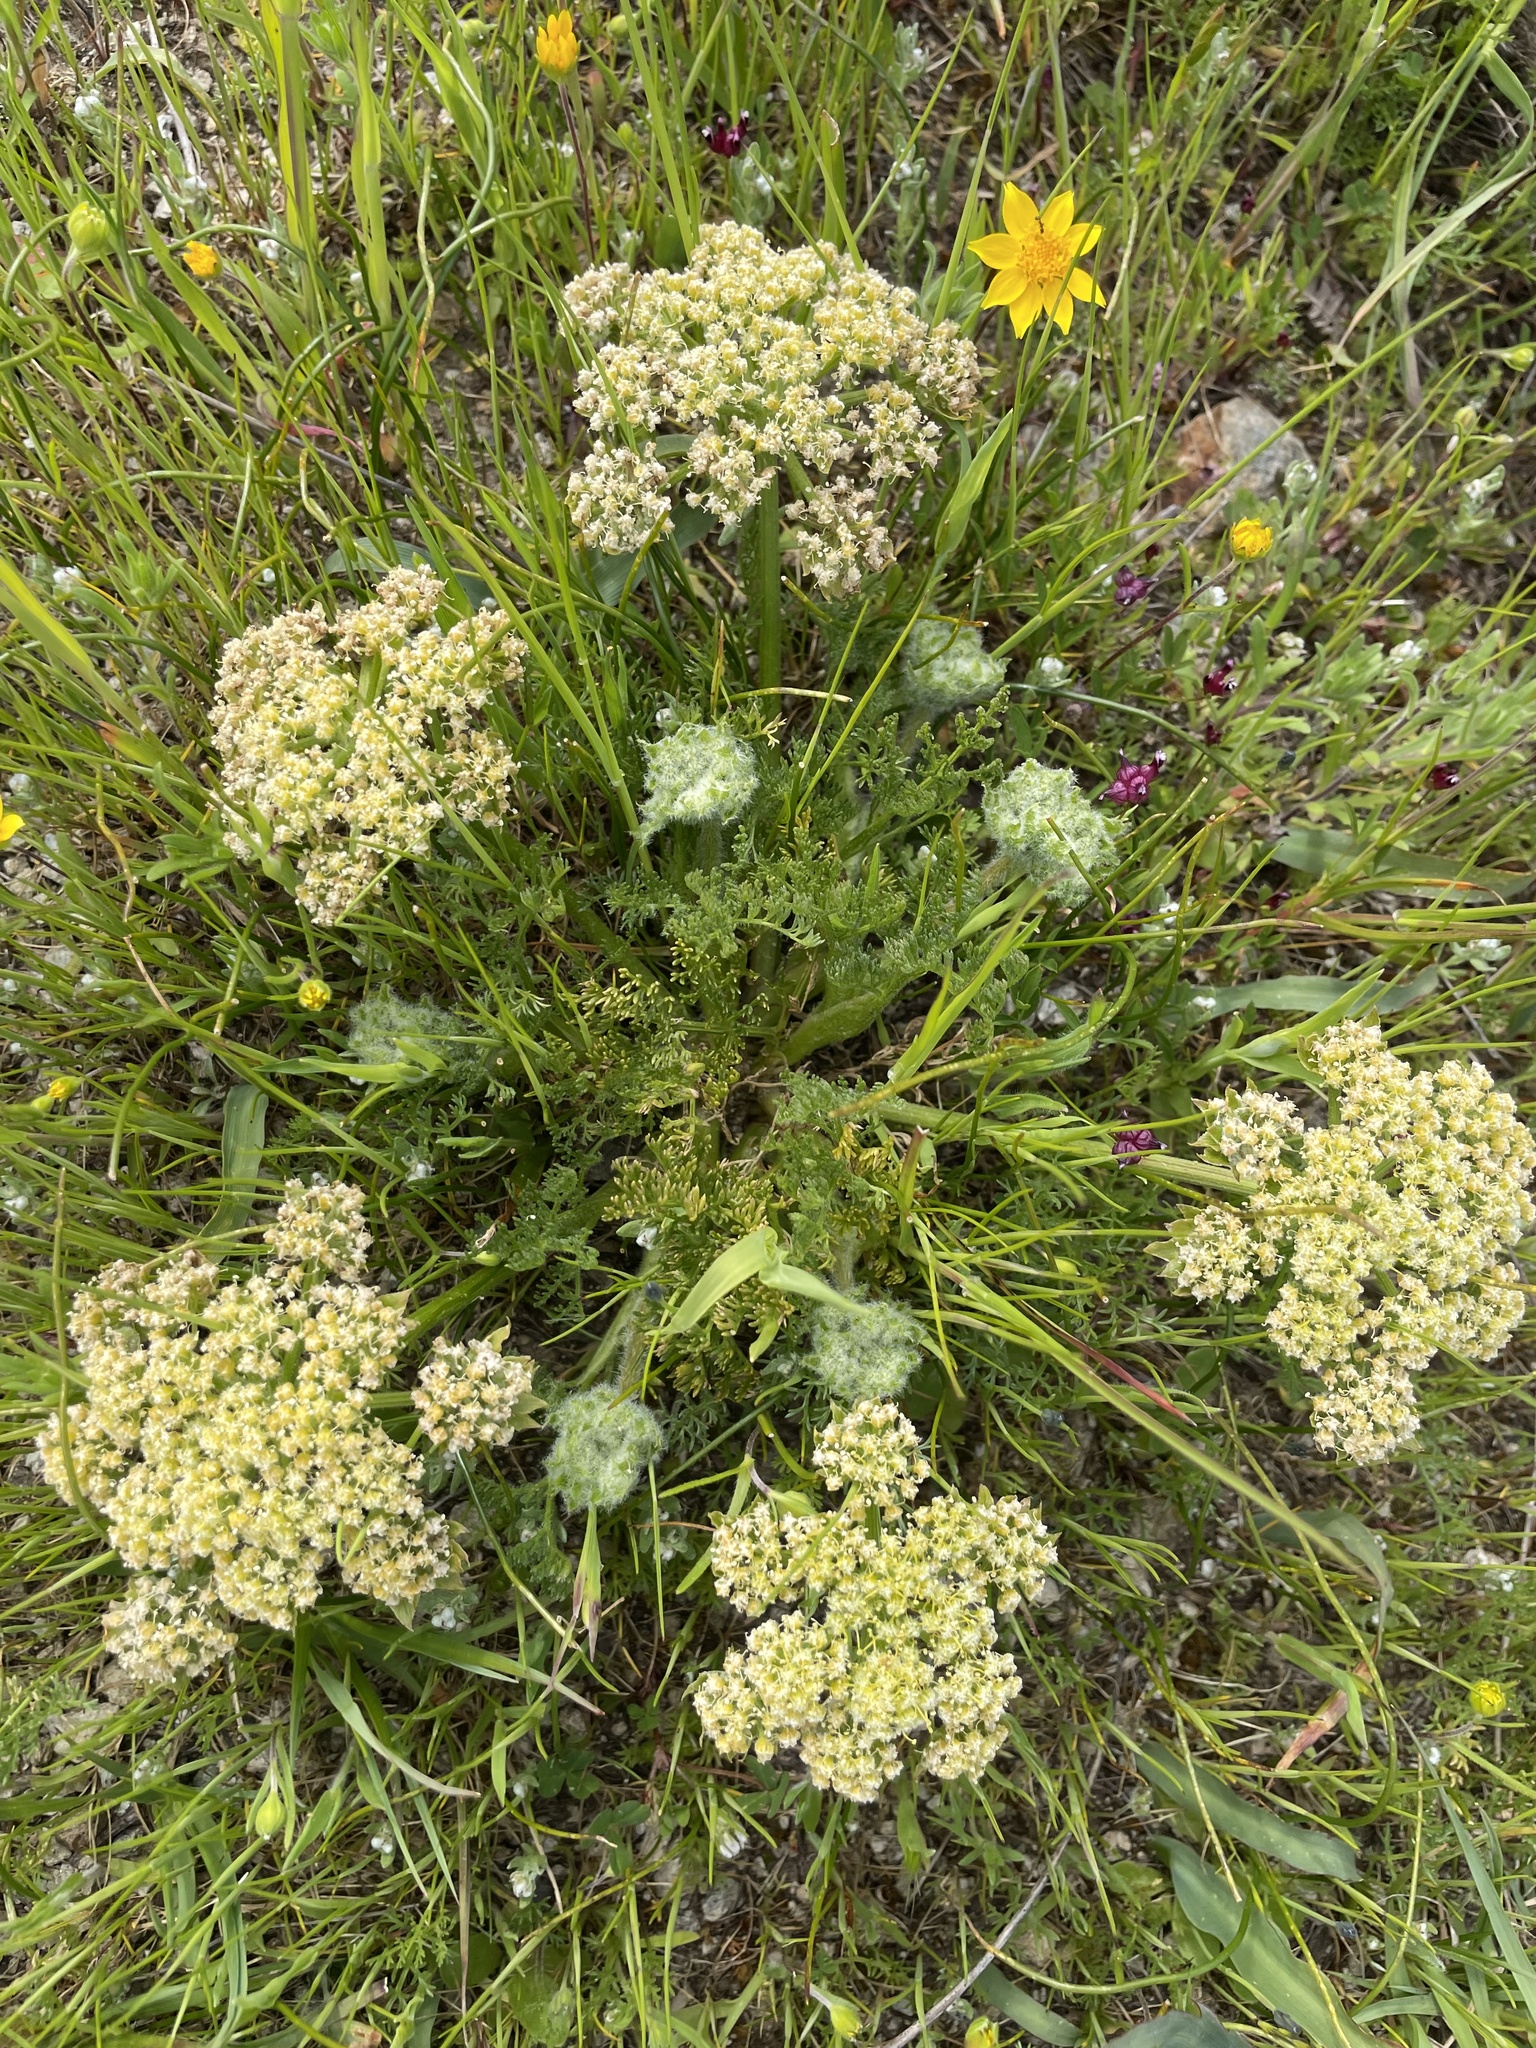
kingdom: Plantae
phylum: Tracheophyta
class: Magnoliopsida
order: Apiales
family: Apiaceae
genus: Lomatium
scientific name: Lomatium dasycarpum
